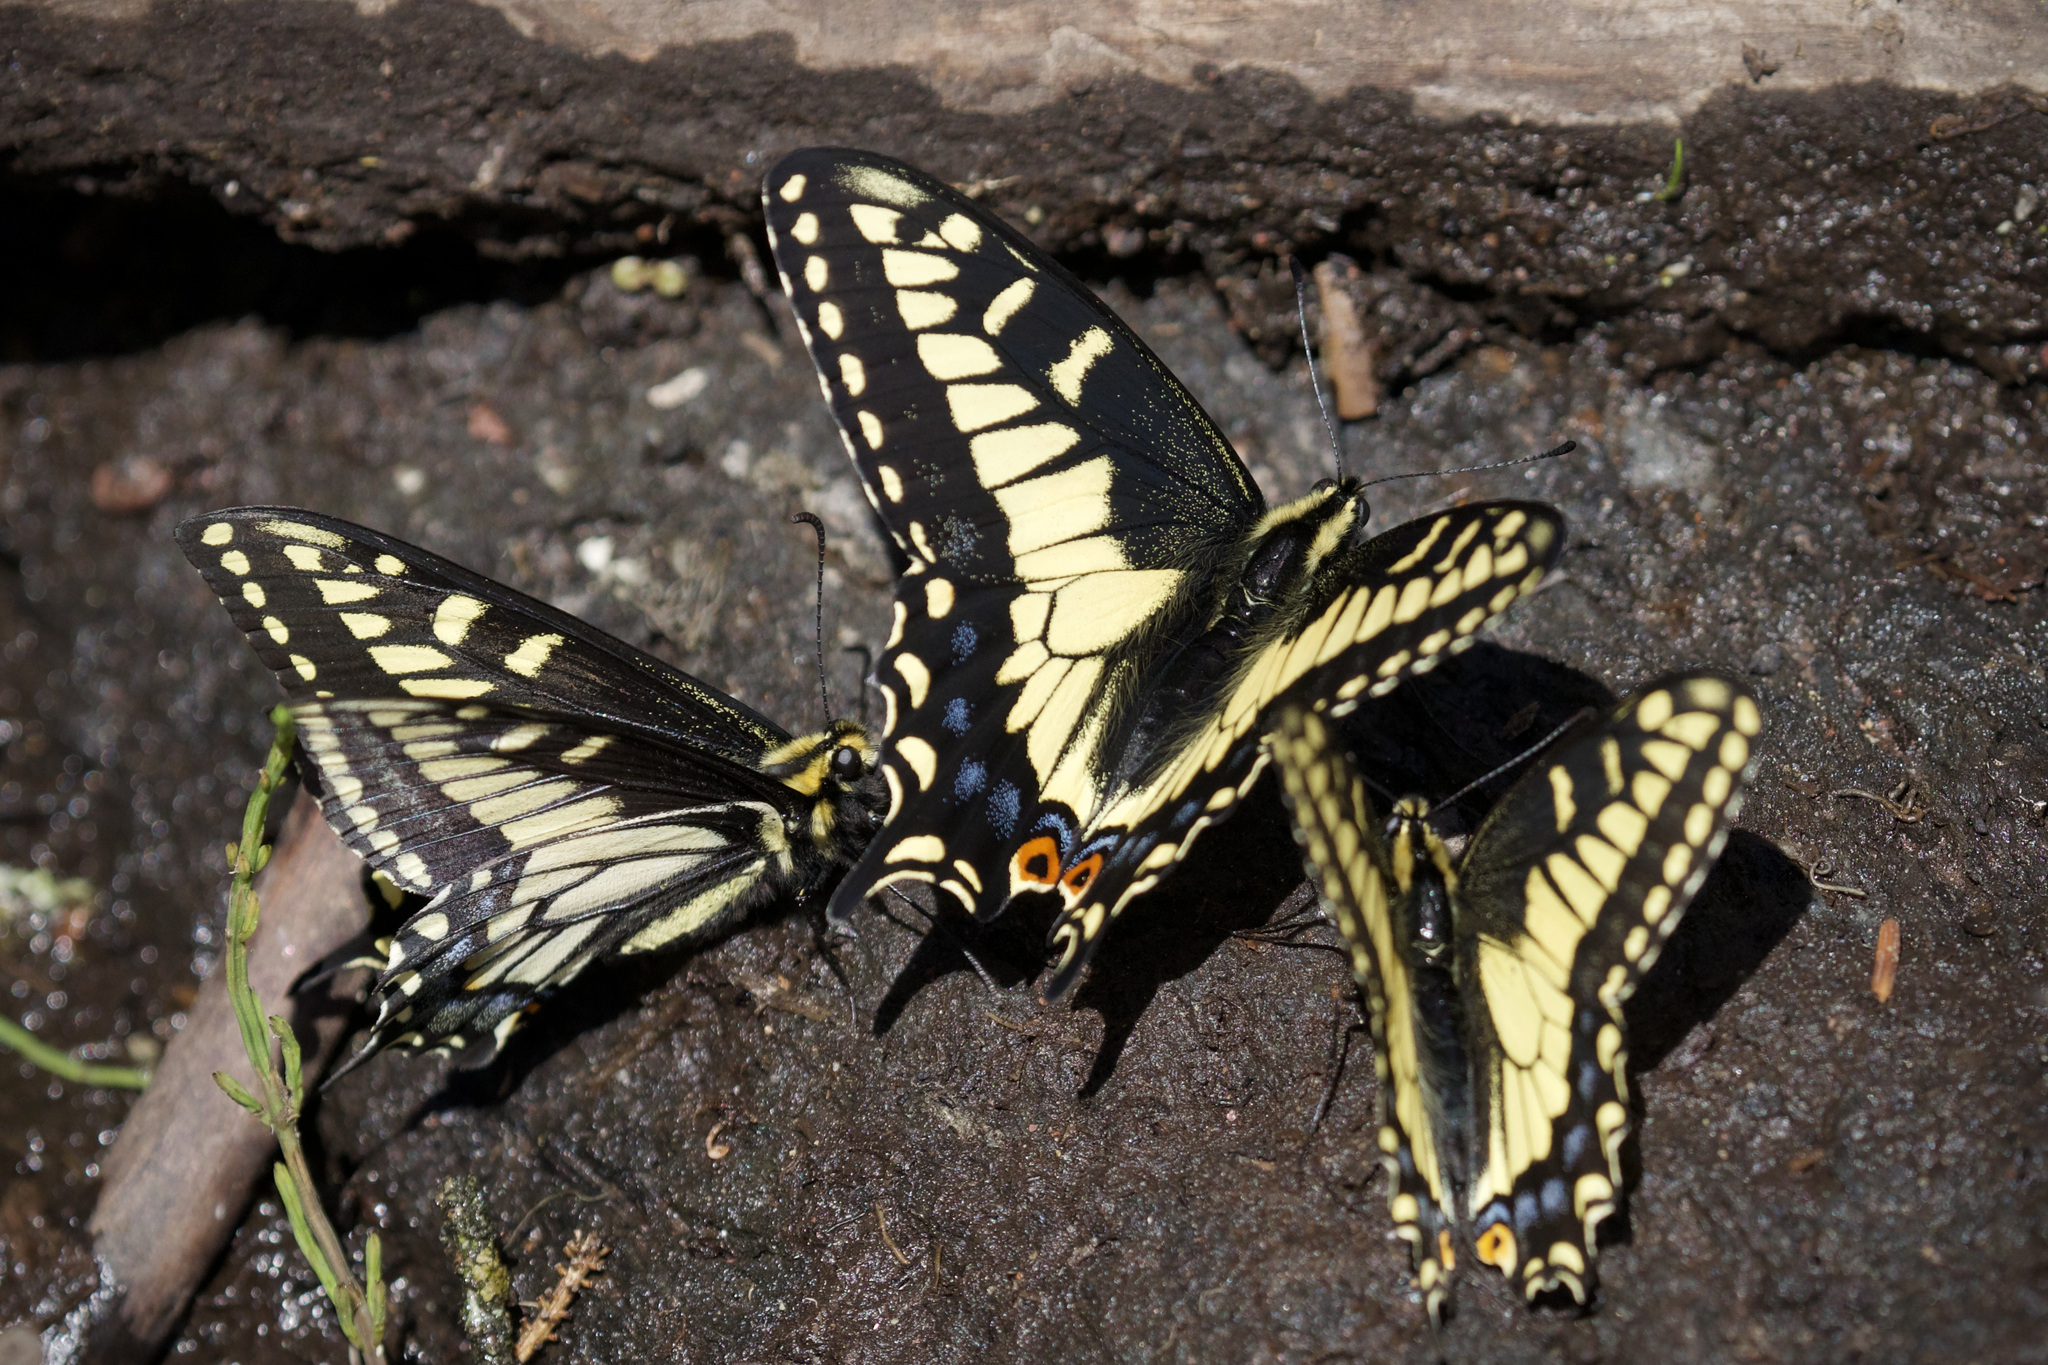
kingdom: Animalia
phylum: Arthropoda
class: Insecta
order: Lepidoptera
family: Papilionidae
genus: Papilio
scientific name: Papilio zelicaon
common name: Anise swallowtail
